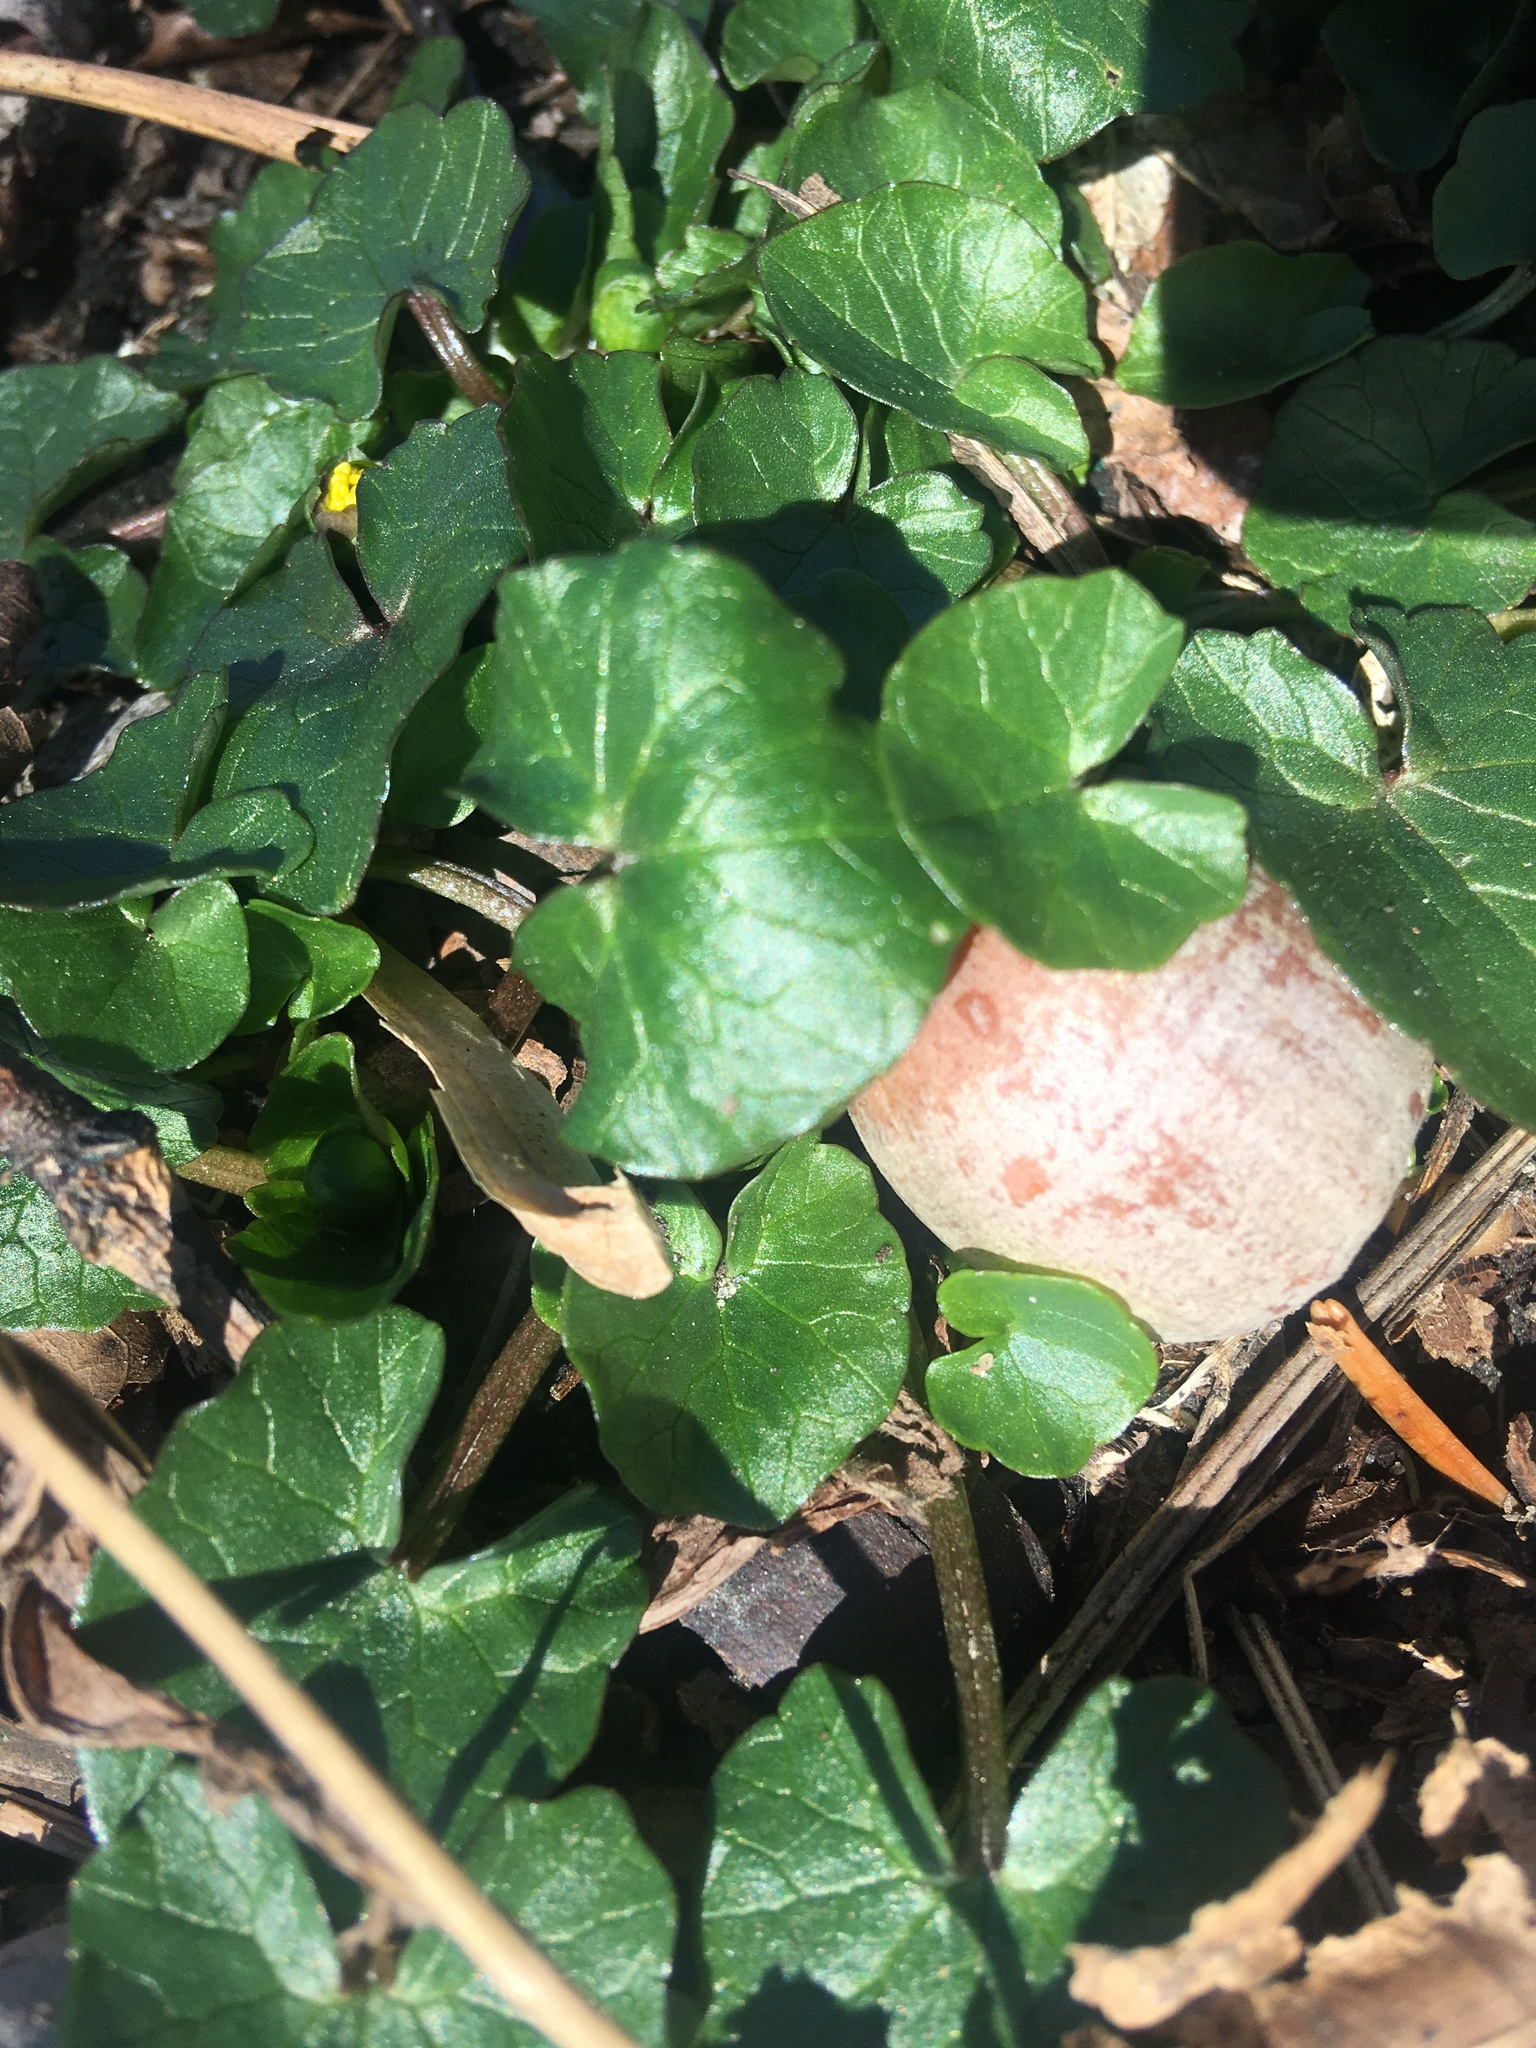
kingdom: Plantae
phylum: Tracheophyta
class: Magnoliopsida
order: Ranunculales
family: Ranunculaceae
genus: Ficaria
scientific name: Ficaria verna
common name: Lesser celandine
